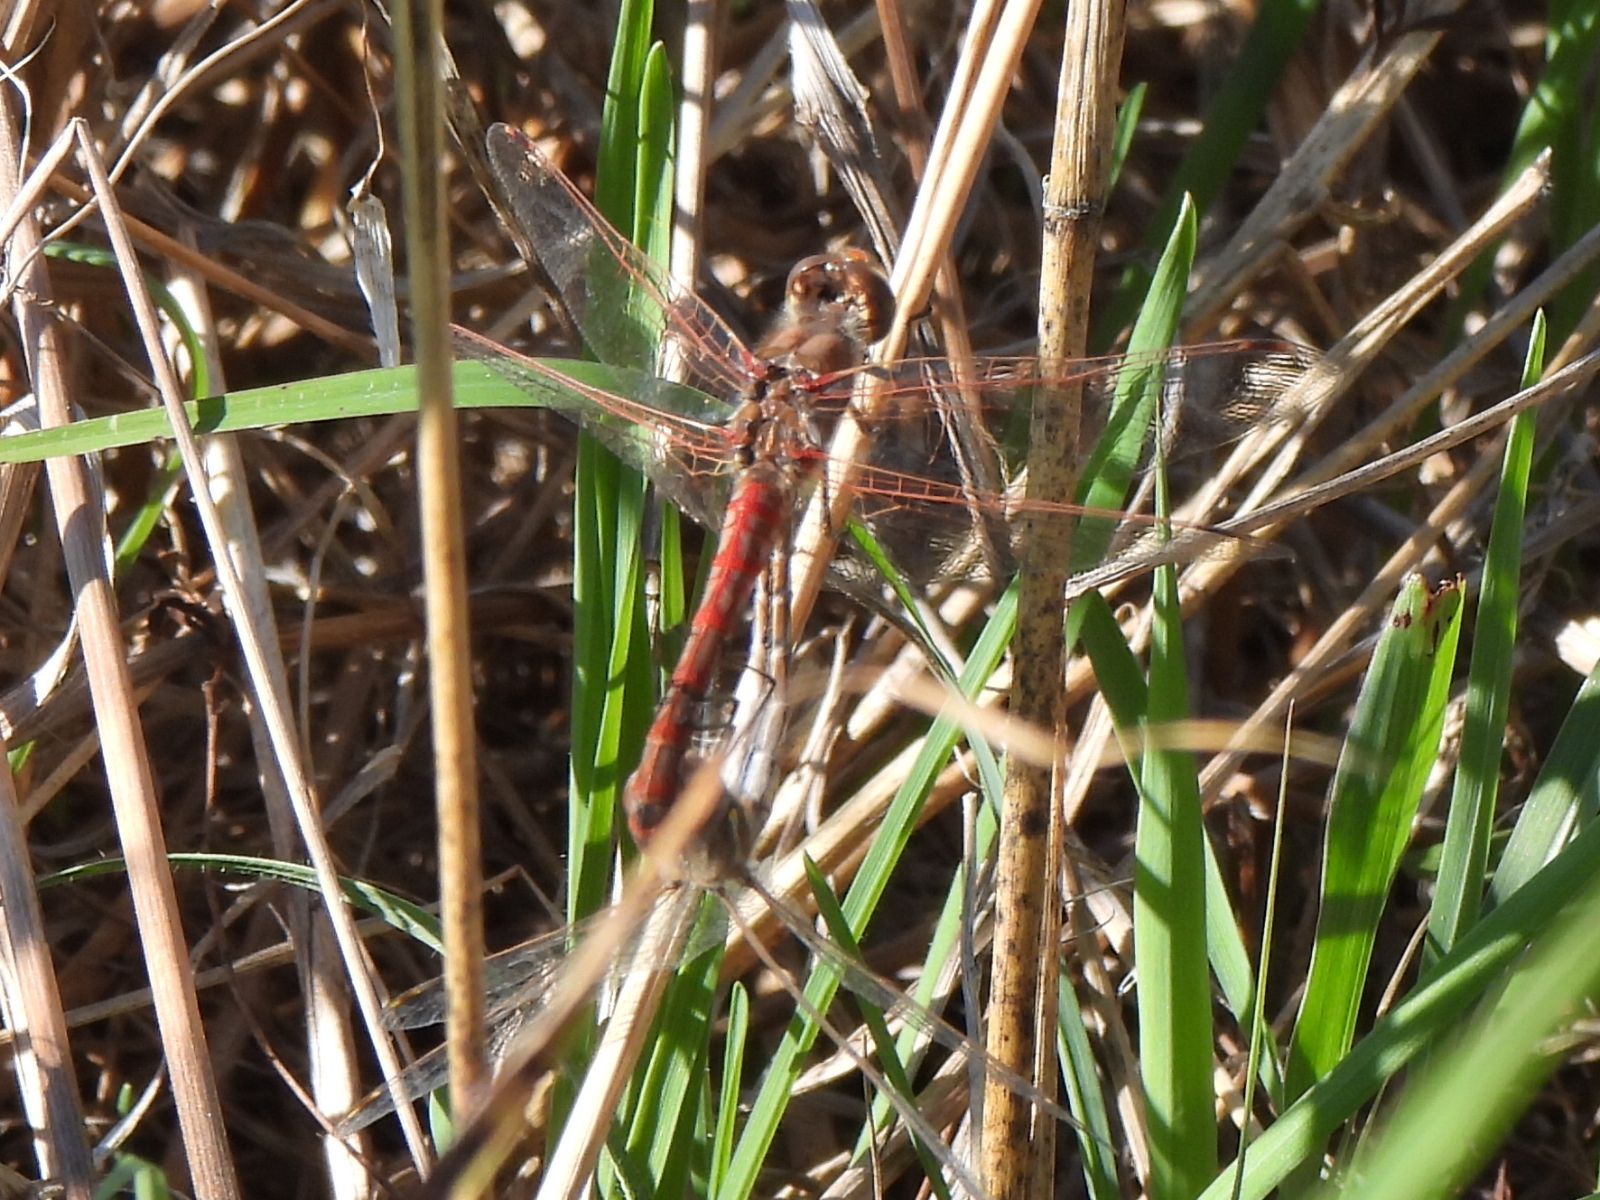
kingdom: Animalia
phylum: Arthropoda
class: Insecta
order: Odonata
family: Libellulidae
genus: Sympetrum
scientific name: Sympetrum corruptum
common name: Variegated meadowhawk
